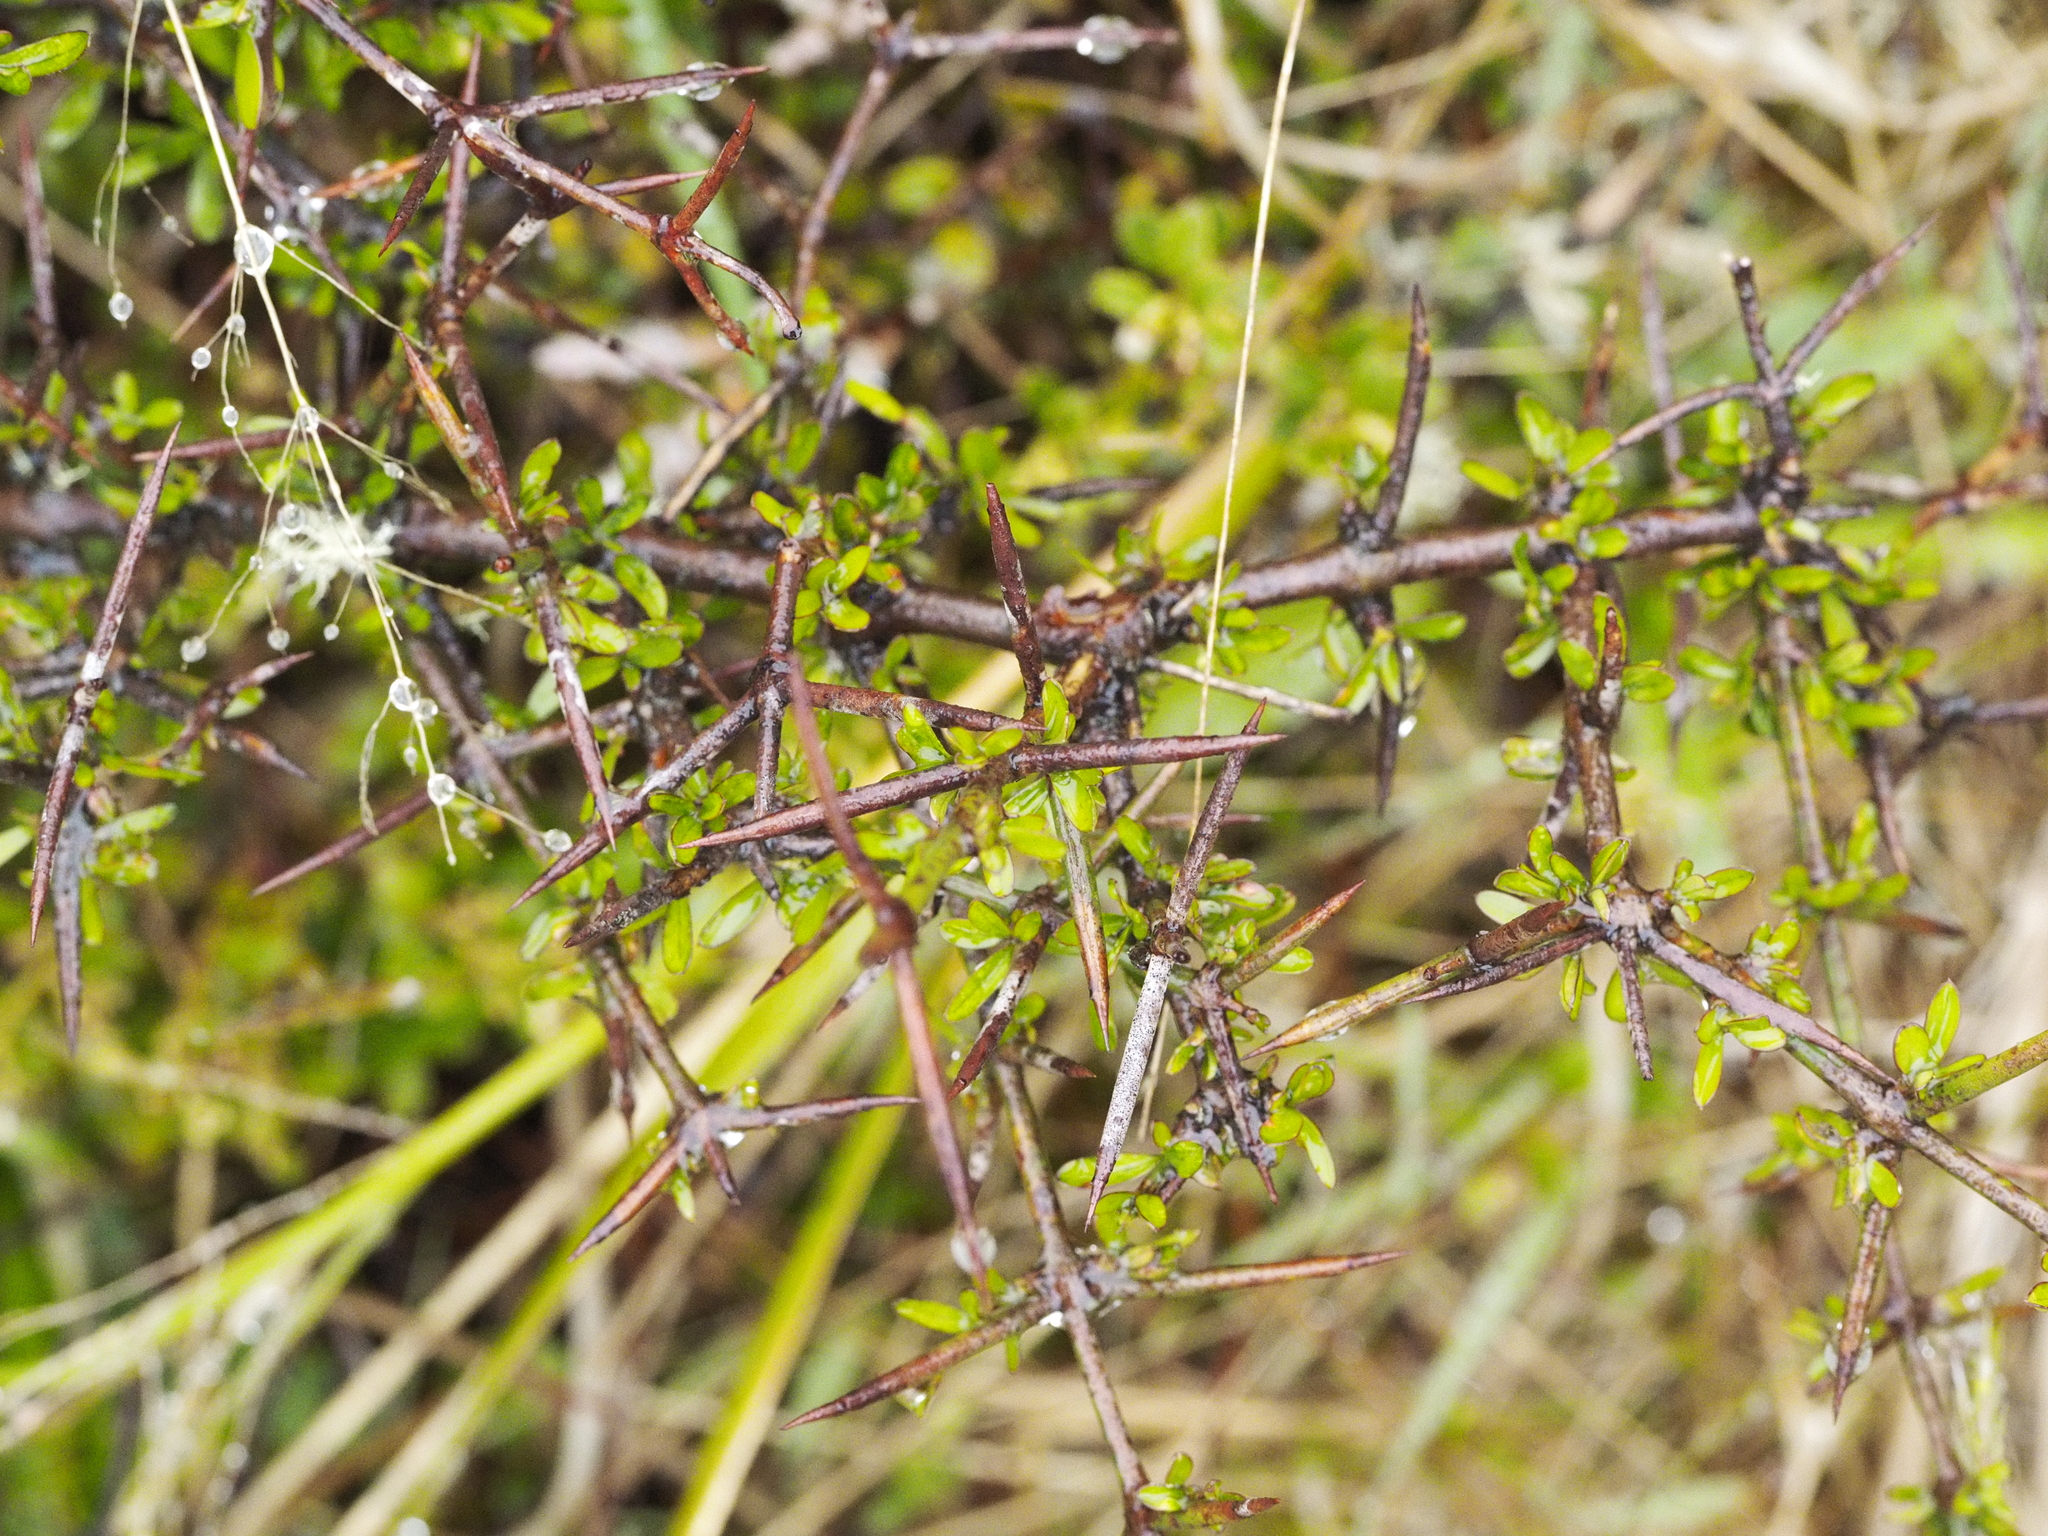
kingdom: Plantae
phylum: Tracheophyta
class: Magnoliopsida
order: Rosales
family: Rhamnaceae
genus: Discaria
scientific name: Discaria toumatou
